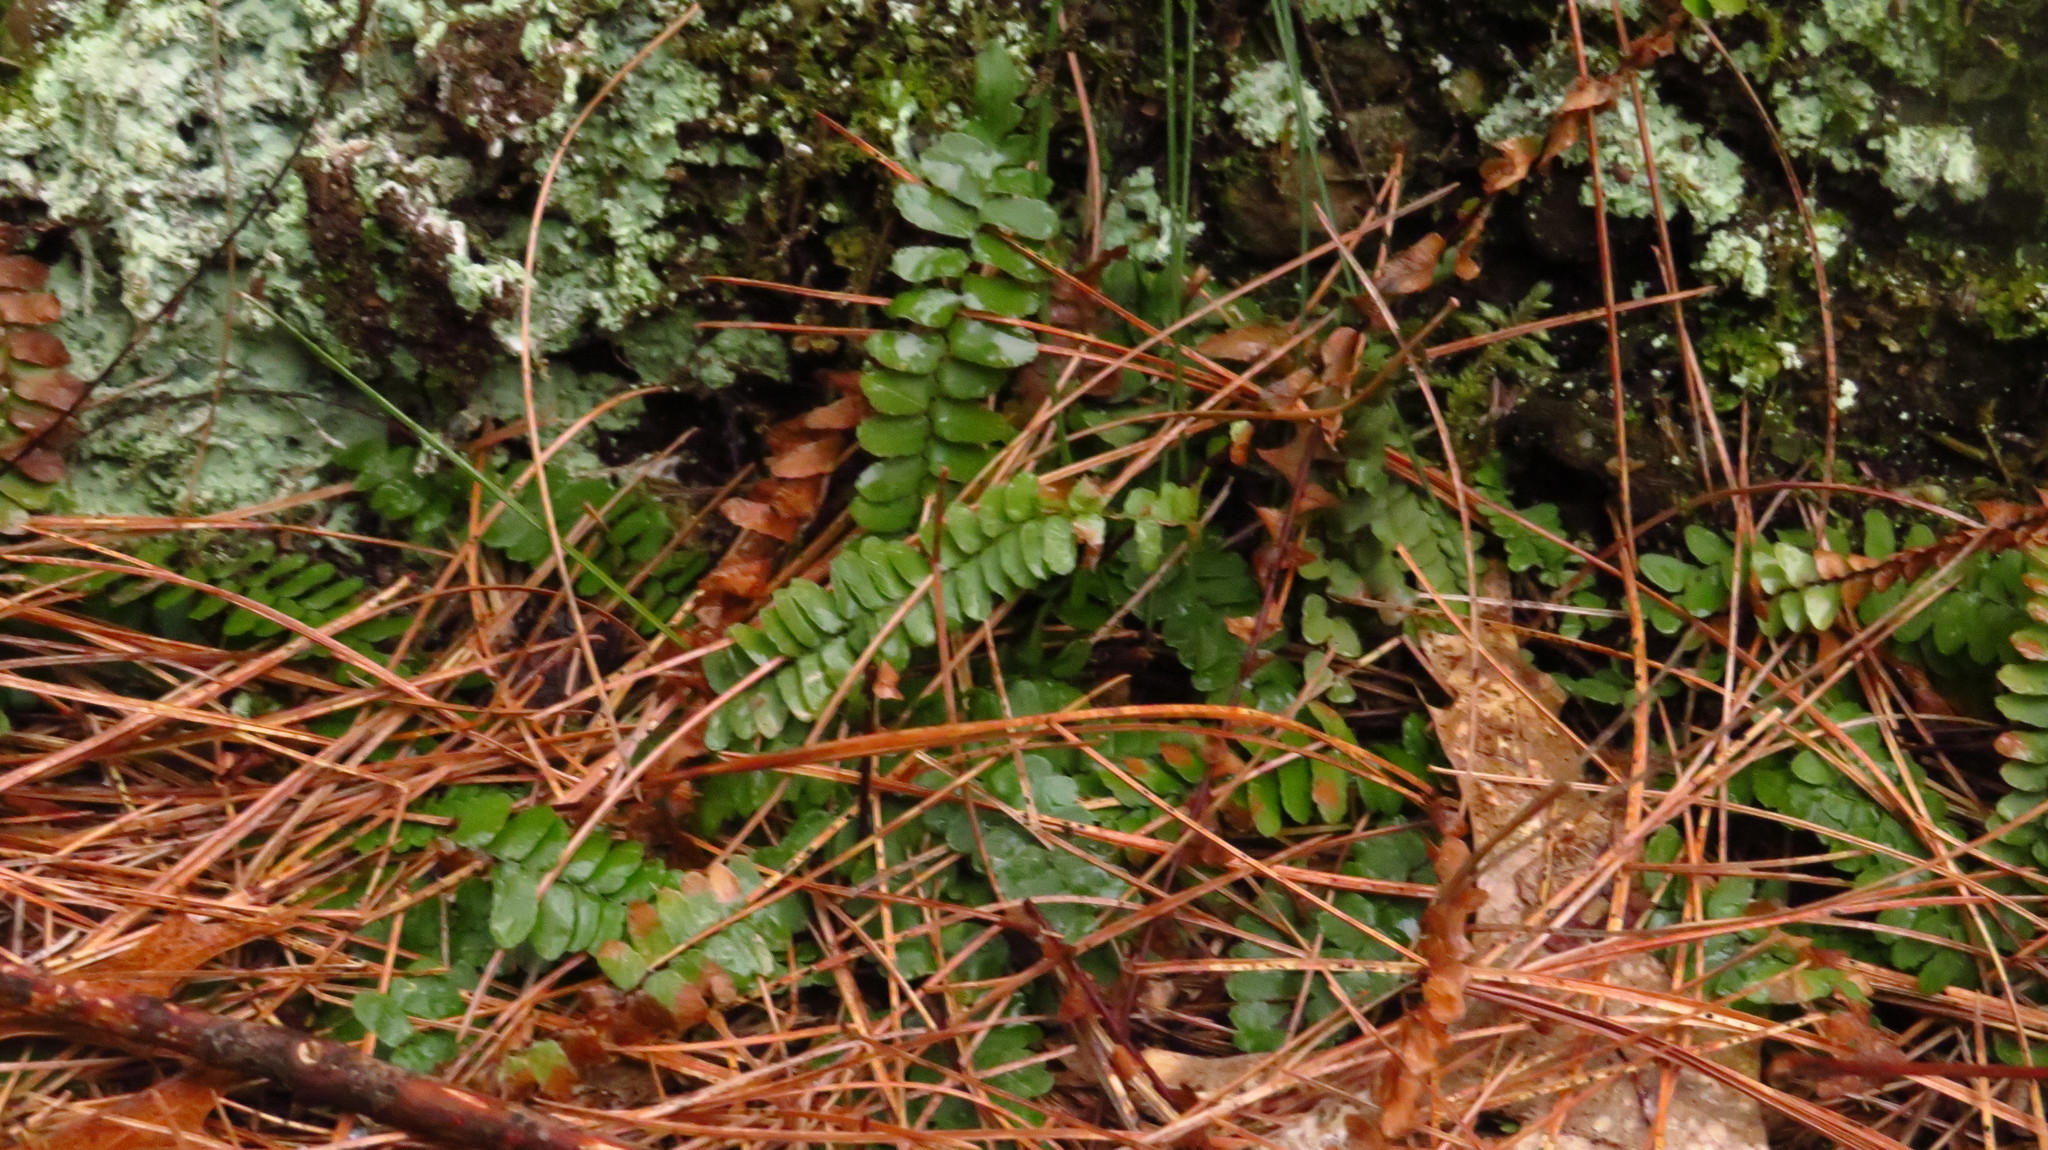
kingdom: Plantae
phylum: Tracheophyta
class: Polypodiopsida
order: Polypodiales
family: Aspleniaceae
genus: Asplenium
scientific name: Asplenium platyneuron
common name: Ebony spleenwort
